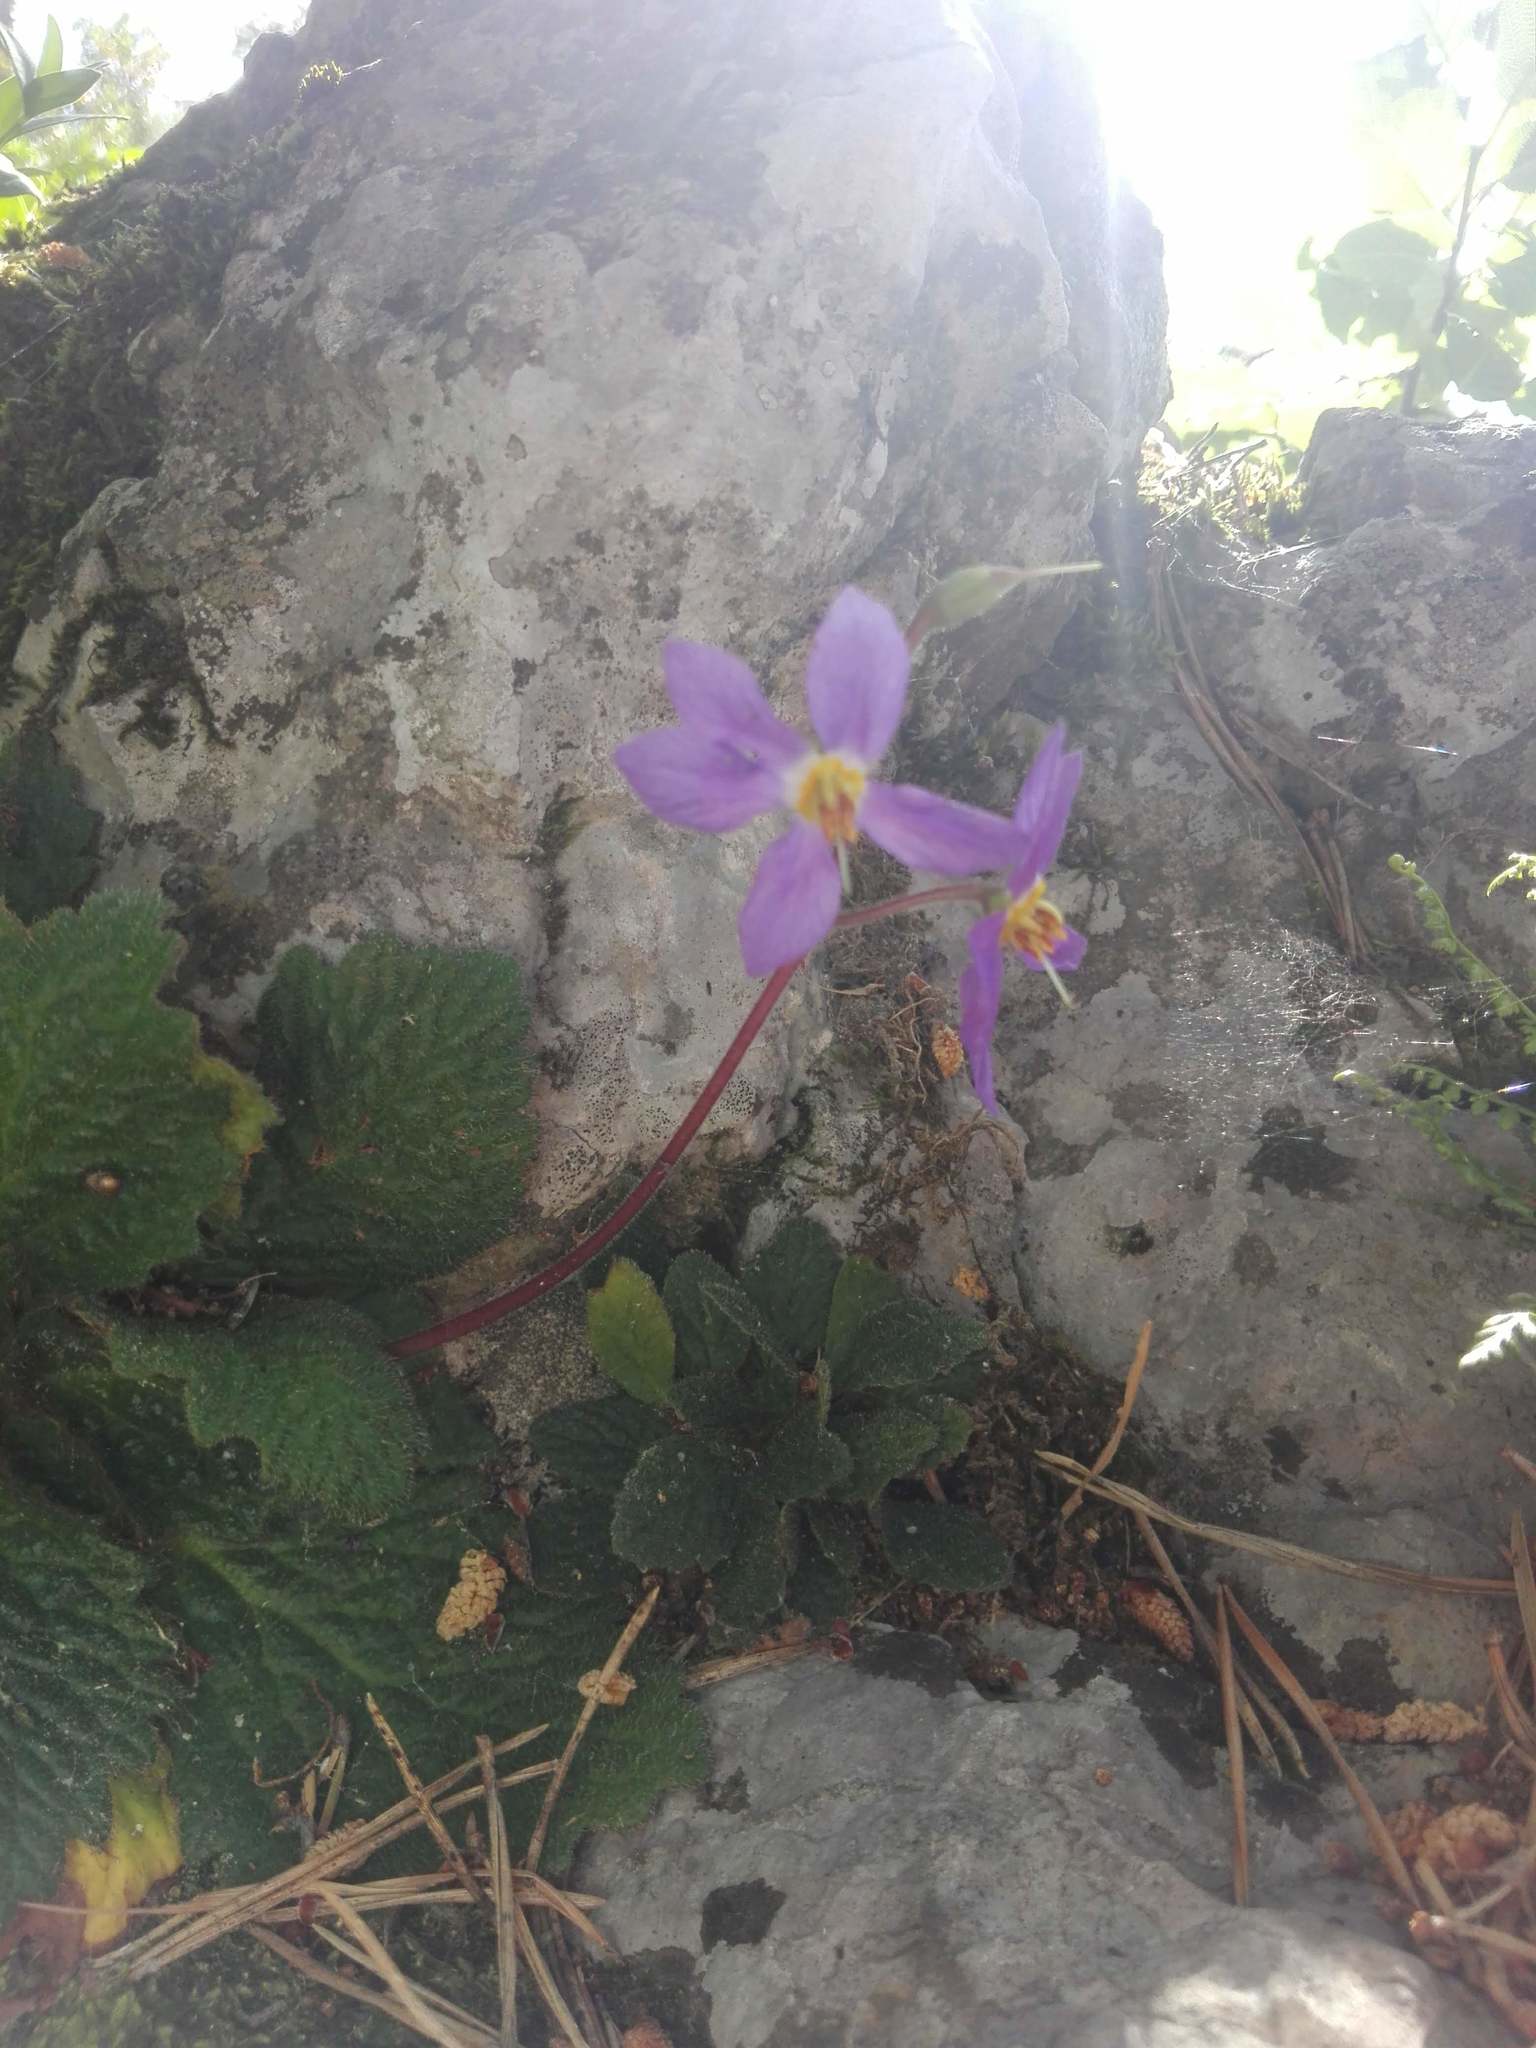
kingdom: Plantae
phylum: Tracheophyta
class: Magnoliopsida
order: Lamiales
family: Gesneriaceae
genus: Ramonda
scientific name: Ramonda myconi
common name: Pyrenean-violet
